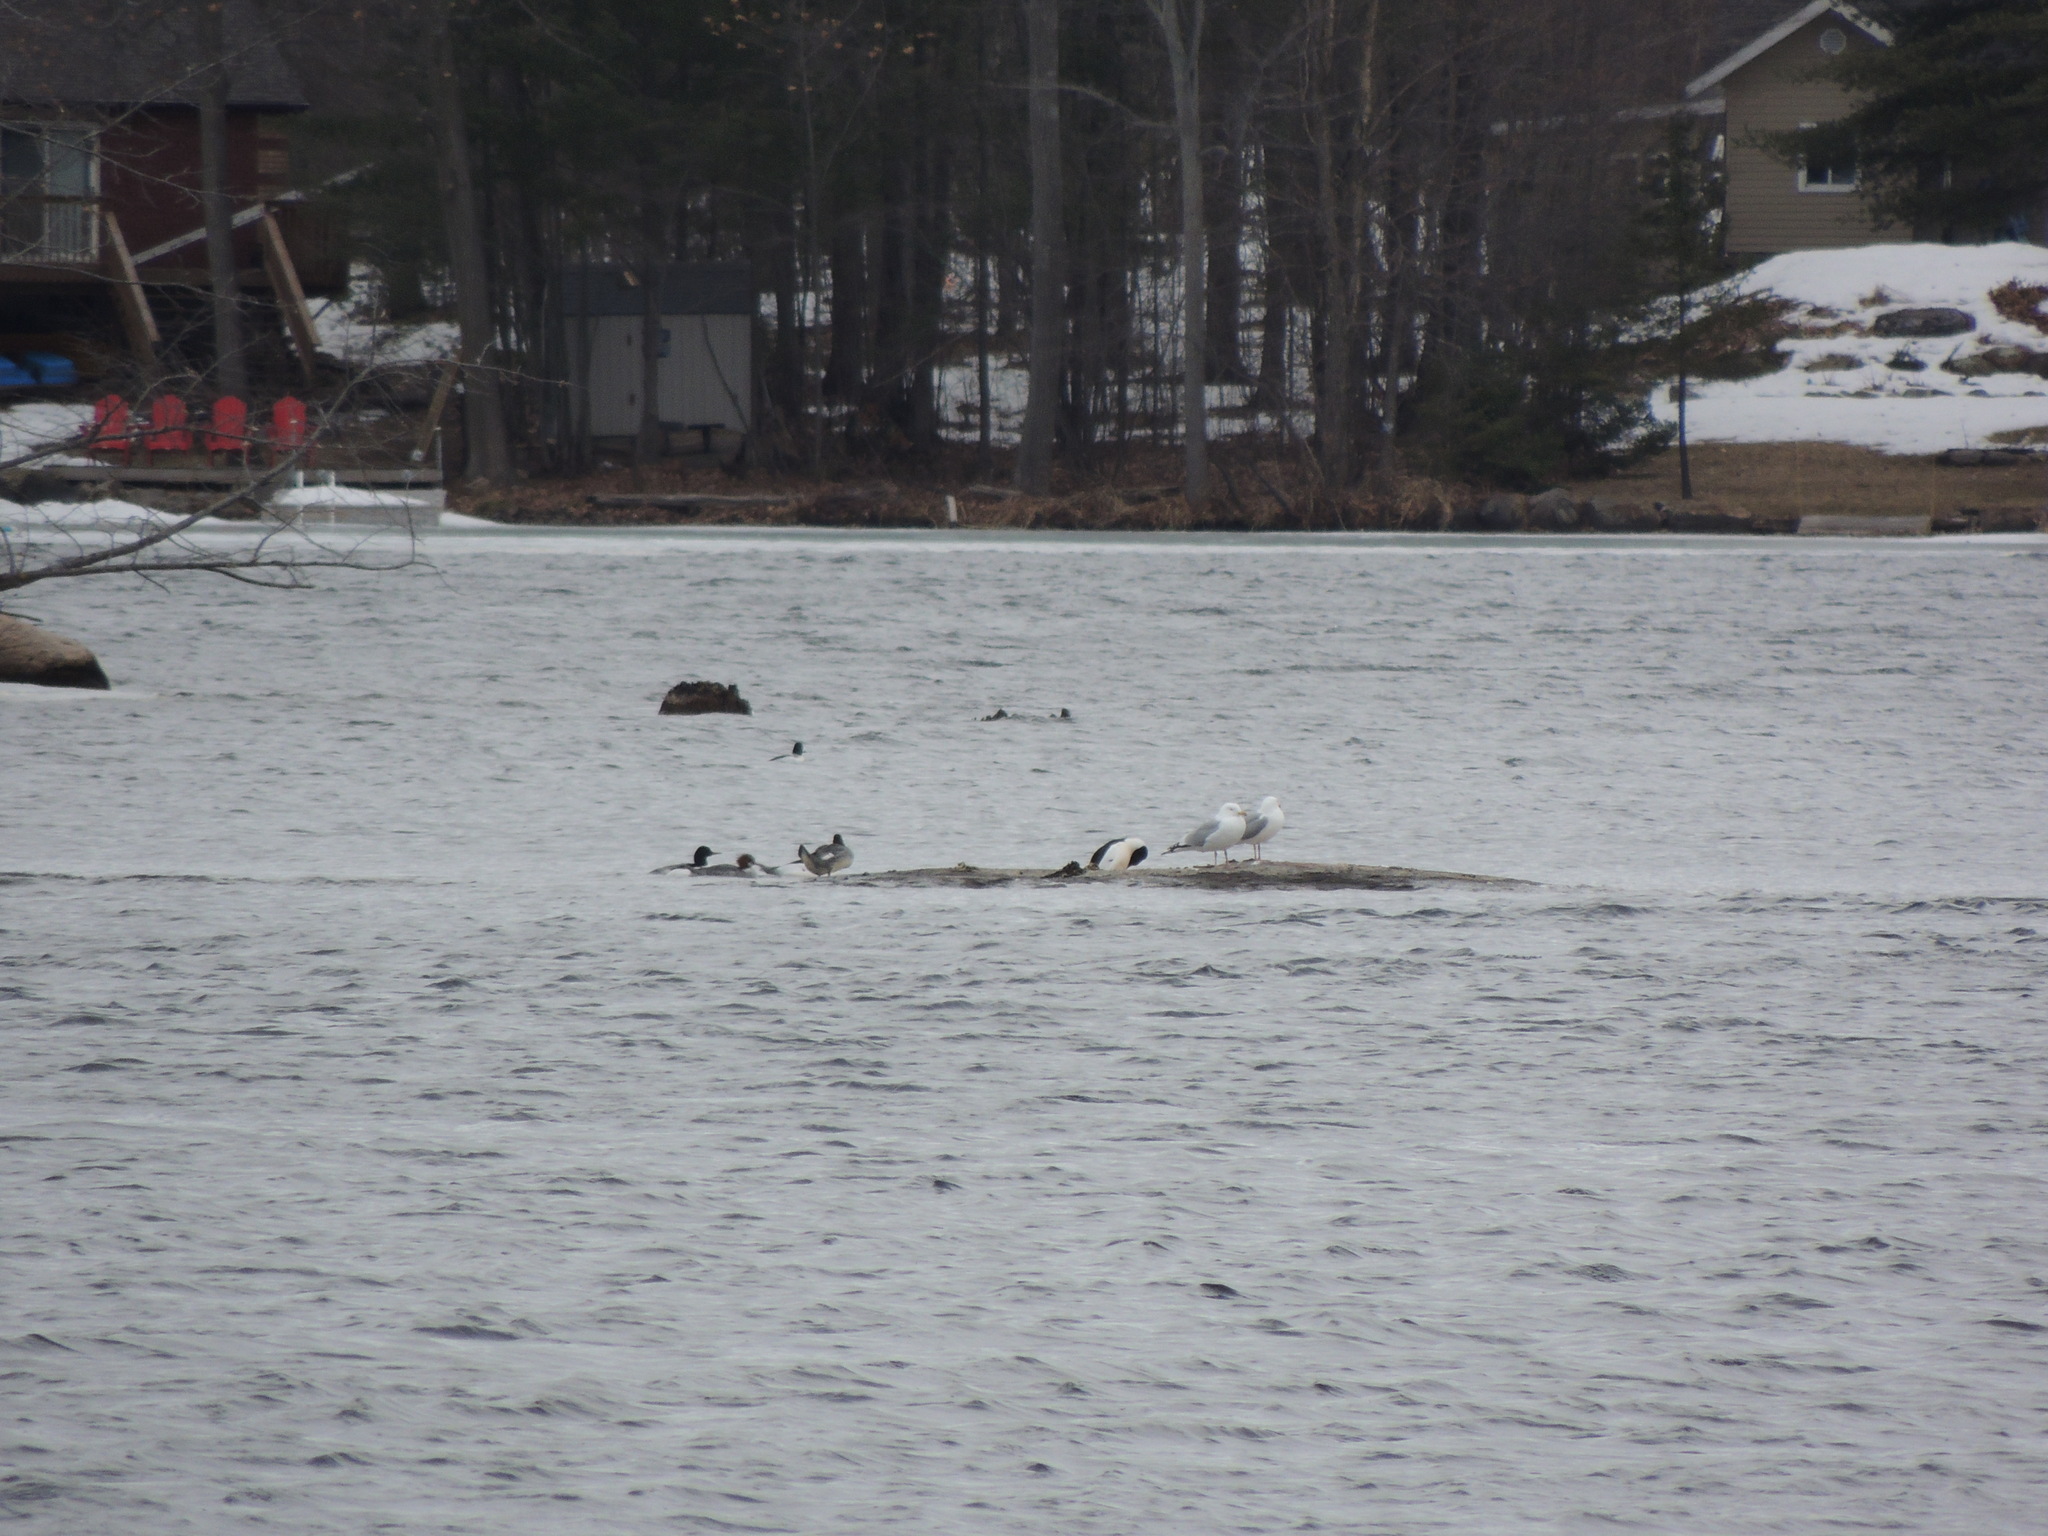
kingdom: Animalia
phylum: Chordata
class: Aves
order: Charadriiformes
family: Laridae
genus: Larus
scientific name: Larus argentatus
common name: Herring gull
